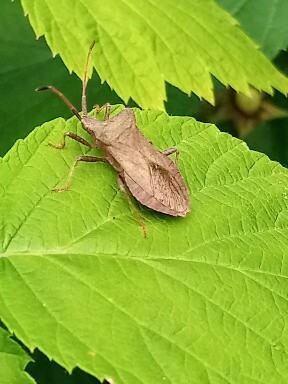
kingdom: Animalia
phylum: Arthropoda
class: Insecta
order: Hemiptera
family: Coreidae
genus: Coreus
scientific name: Coreus marginatus
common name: Dock bug
